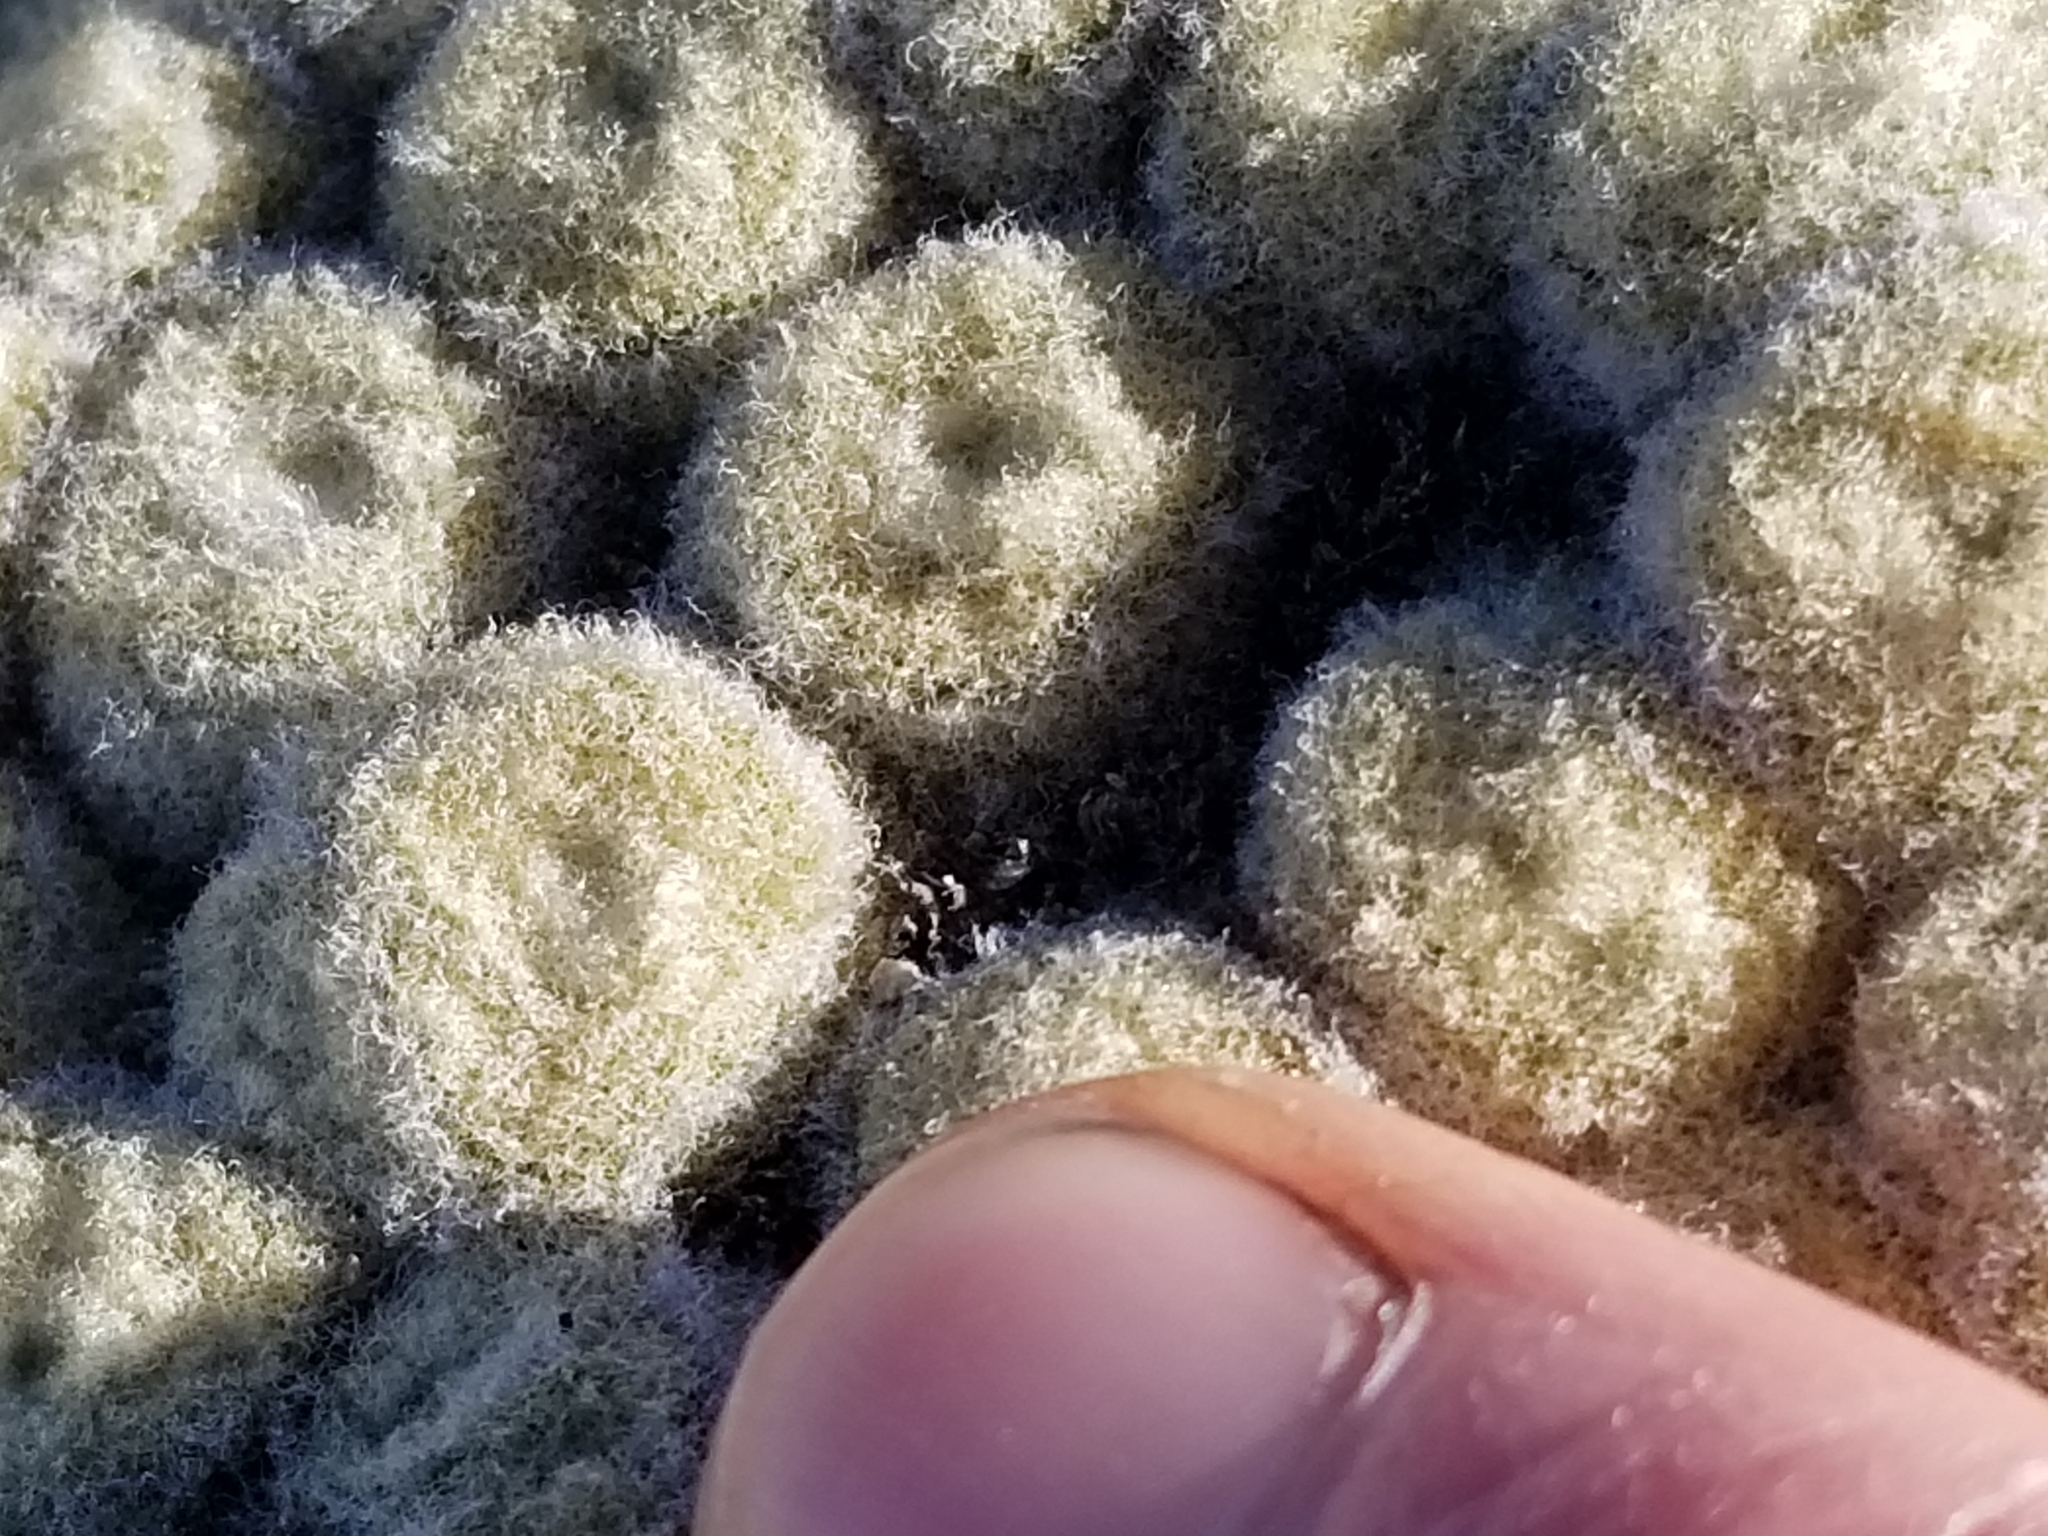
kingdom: Plantae
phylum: Tracheophyta
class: Magnoliopsida
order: Asterales
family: Asteraceae
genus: Haastia
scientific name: Haastia pulvinaris
